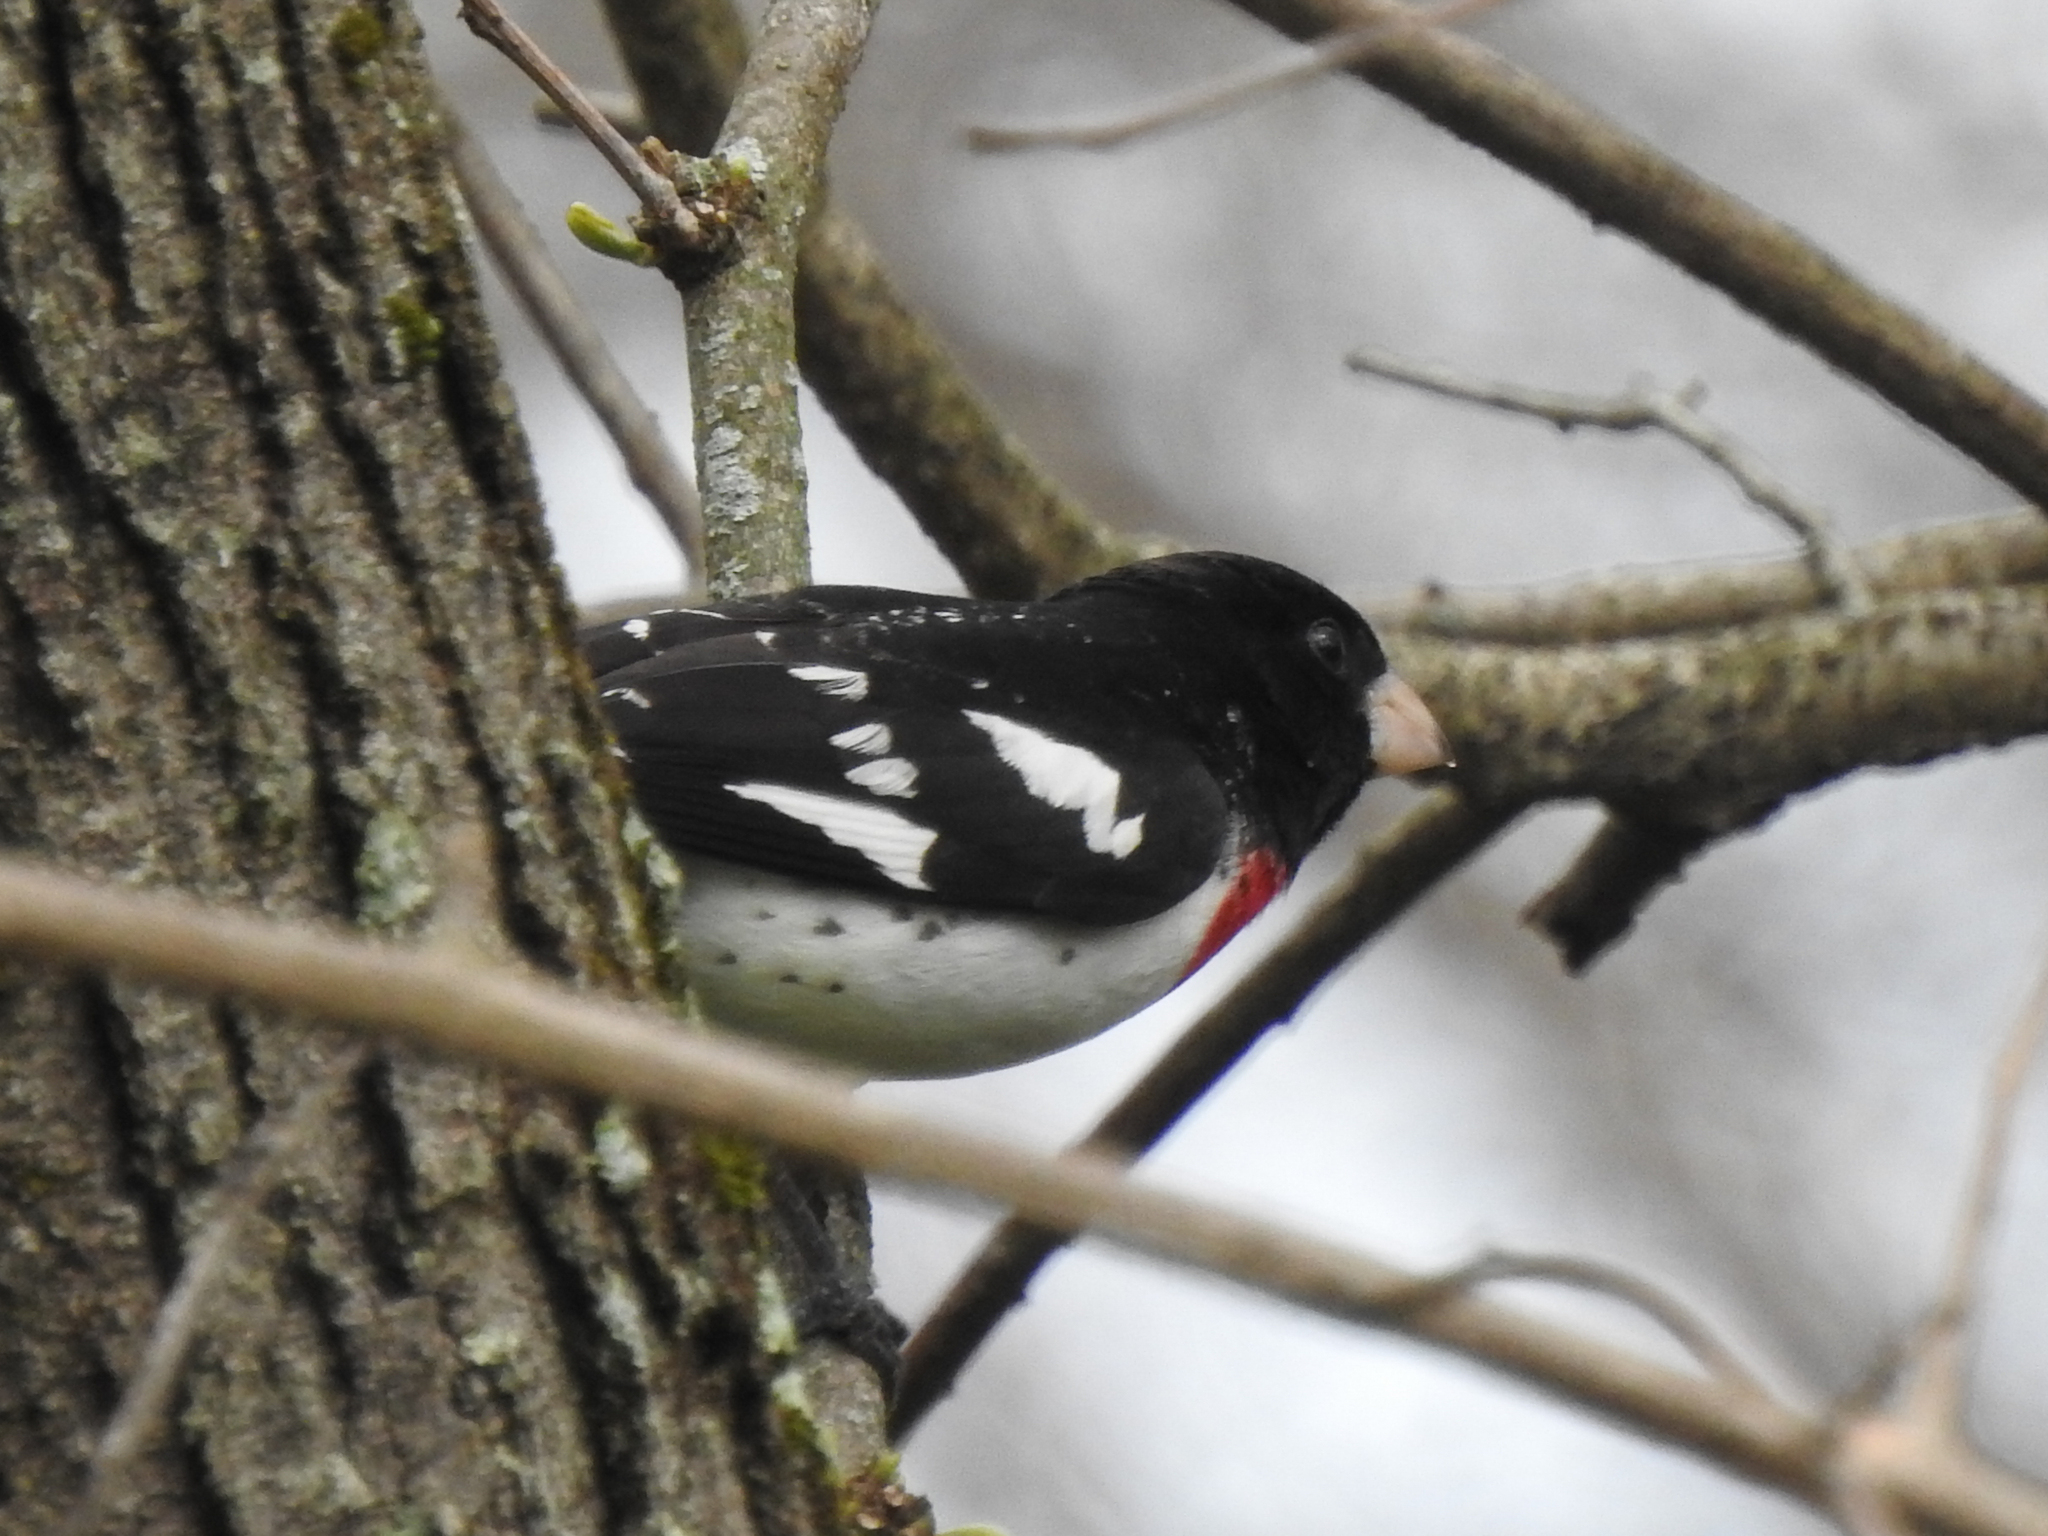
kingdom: Animalia
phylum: Chordata
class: Aves
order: Passeriformes
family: Cardinalidae
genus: Pheucticus
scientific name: Pheucticus ludovicianus
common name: Rose-breasted grosbeak
